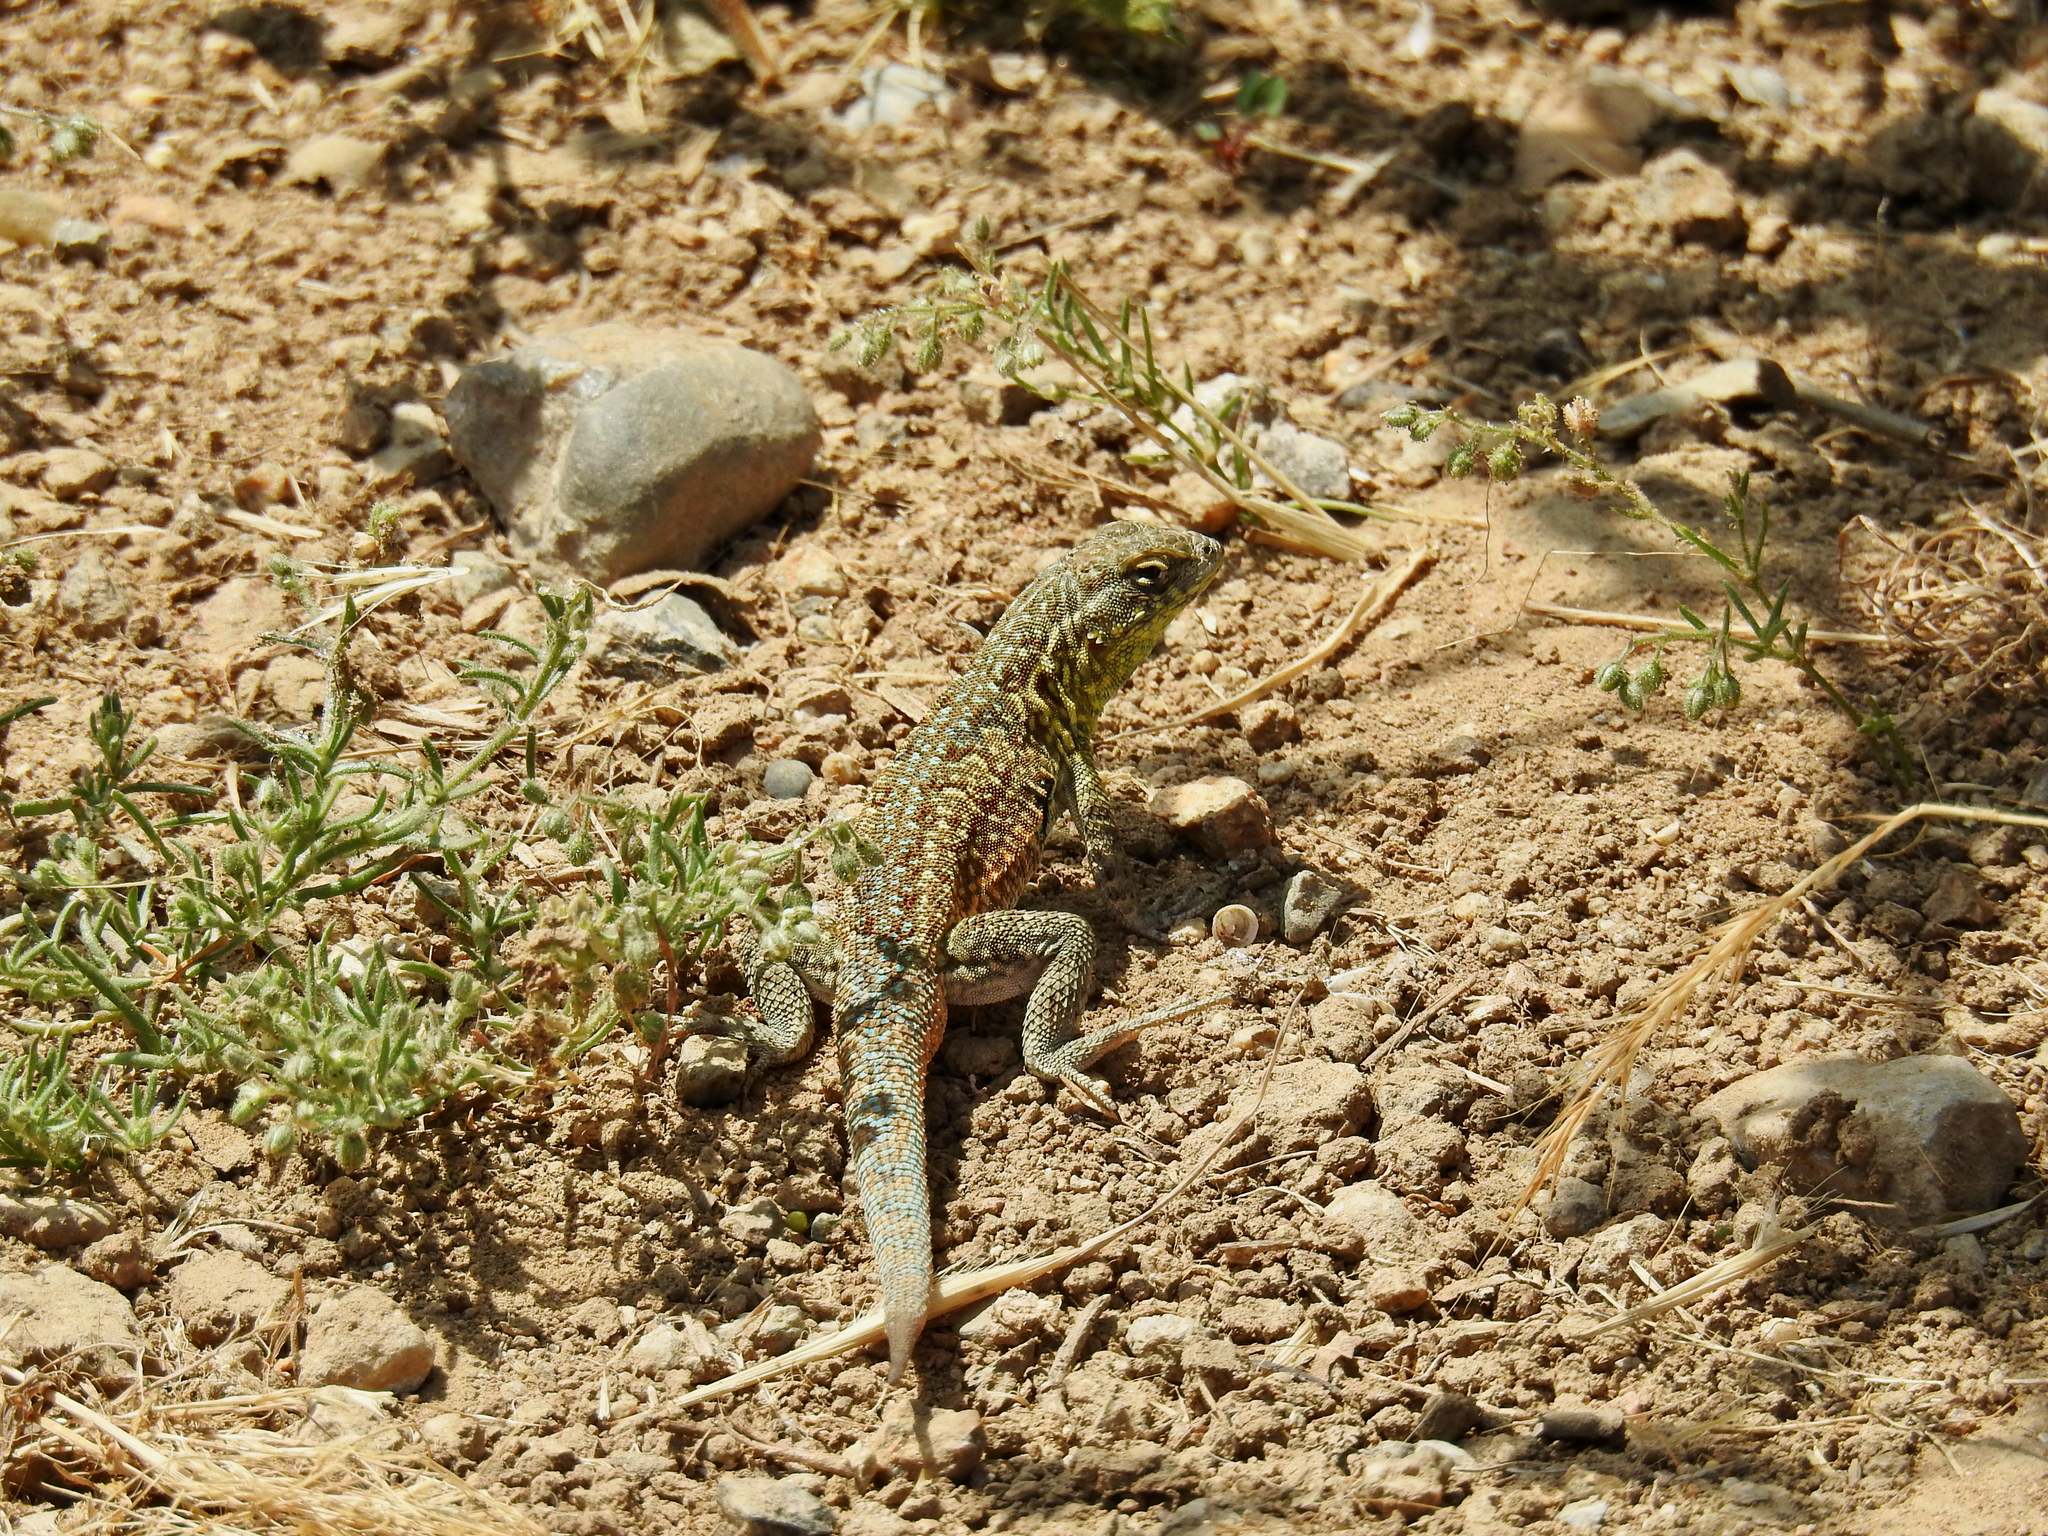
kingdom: Animalia
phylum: Chordata
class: Squamata
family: Phrynosomatidae
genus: Uta
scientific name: Uta stansburiana
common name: Side-blotched lizard
